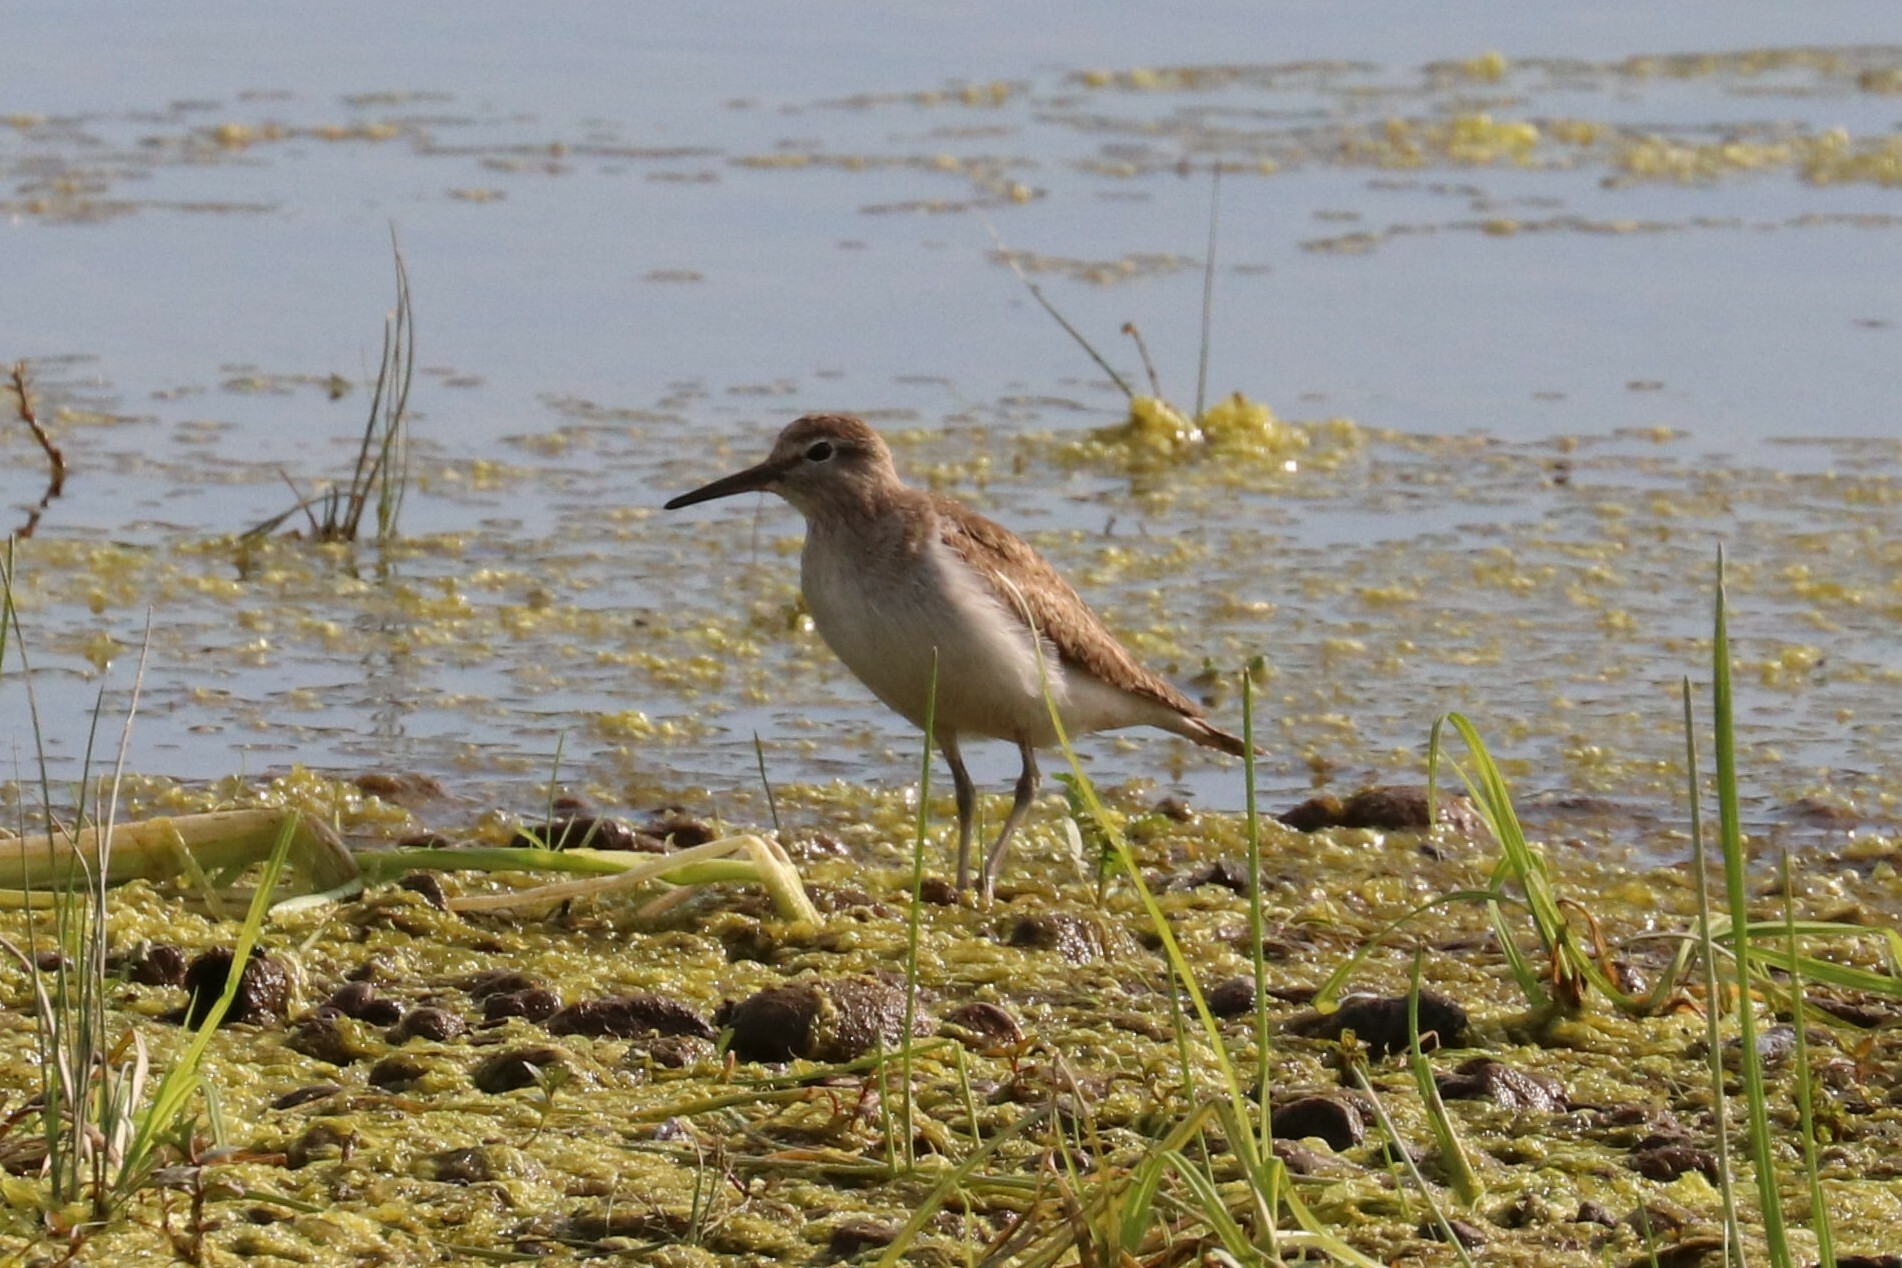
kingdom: Animalia
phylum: Chordata
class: Aves
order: Charadriiformes
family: Scolopacidae
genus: Actitis
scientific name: Actitis hypoleucos
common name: Common sandpiper
